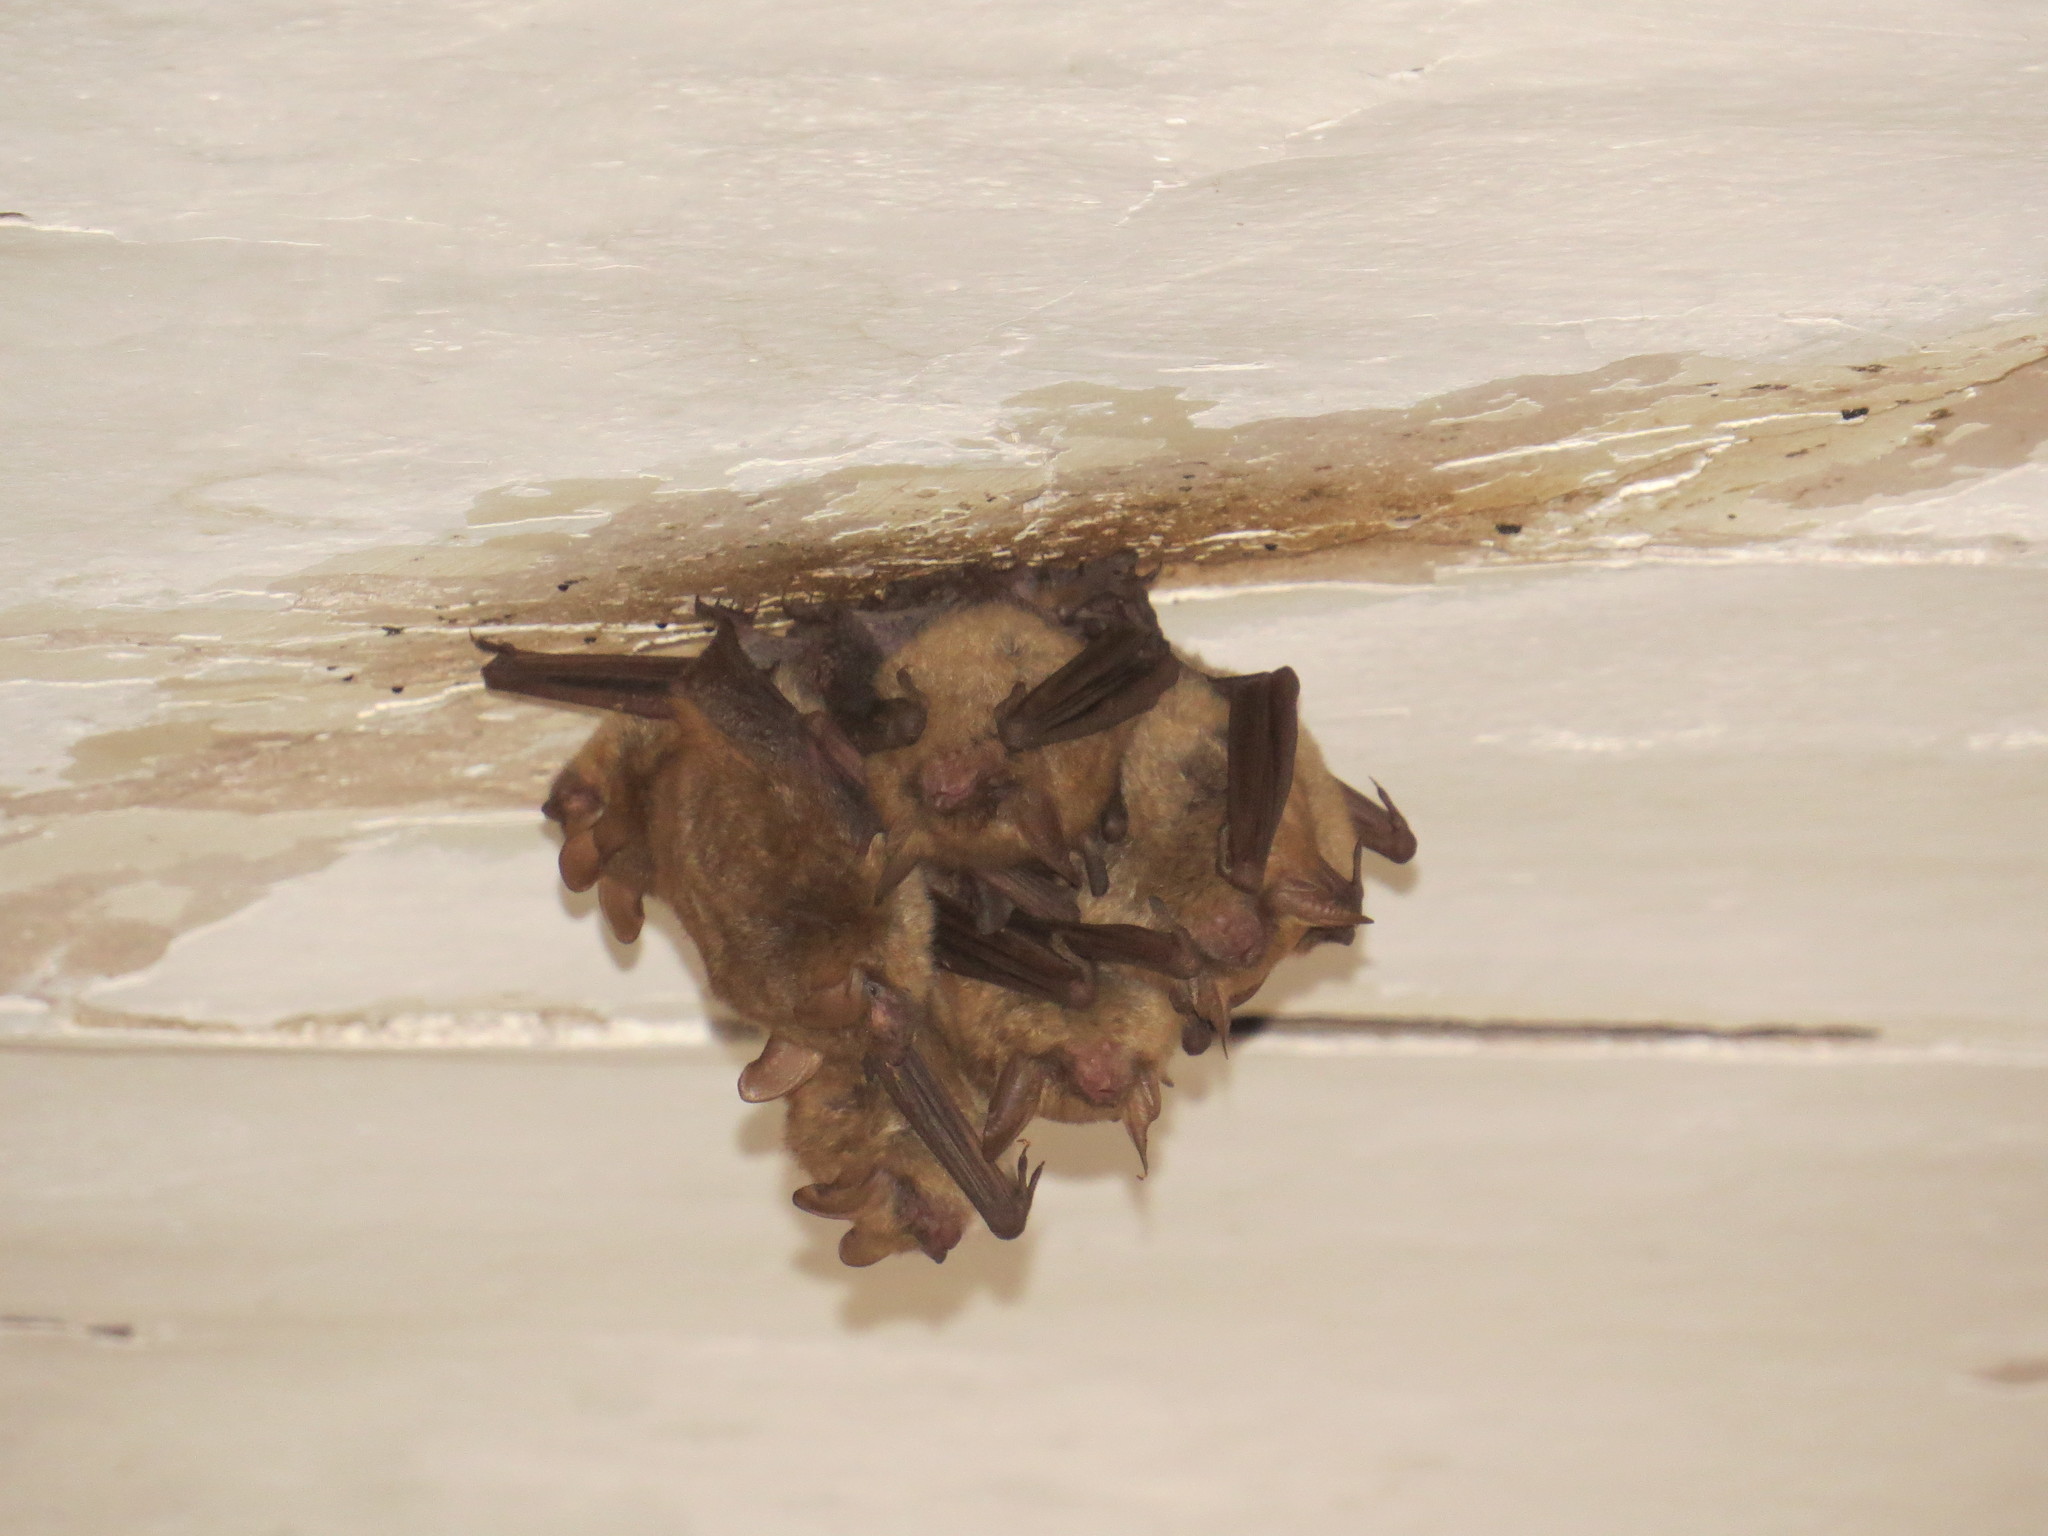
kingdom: Animalia
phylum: Chordata
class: Mammalia
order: Chiroptera
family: Vespertilionidae
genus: Myotis
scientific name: Myotis emarginatus
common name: Geoffroy's bat
